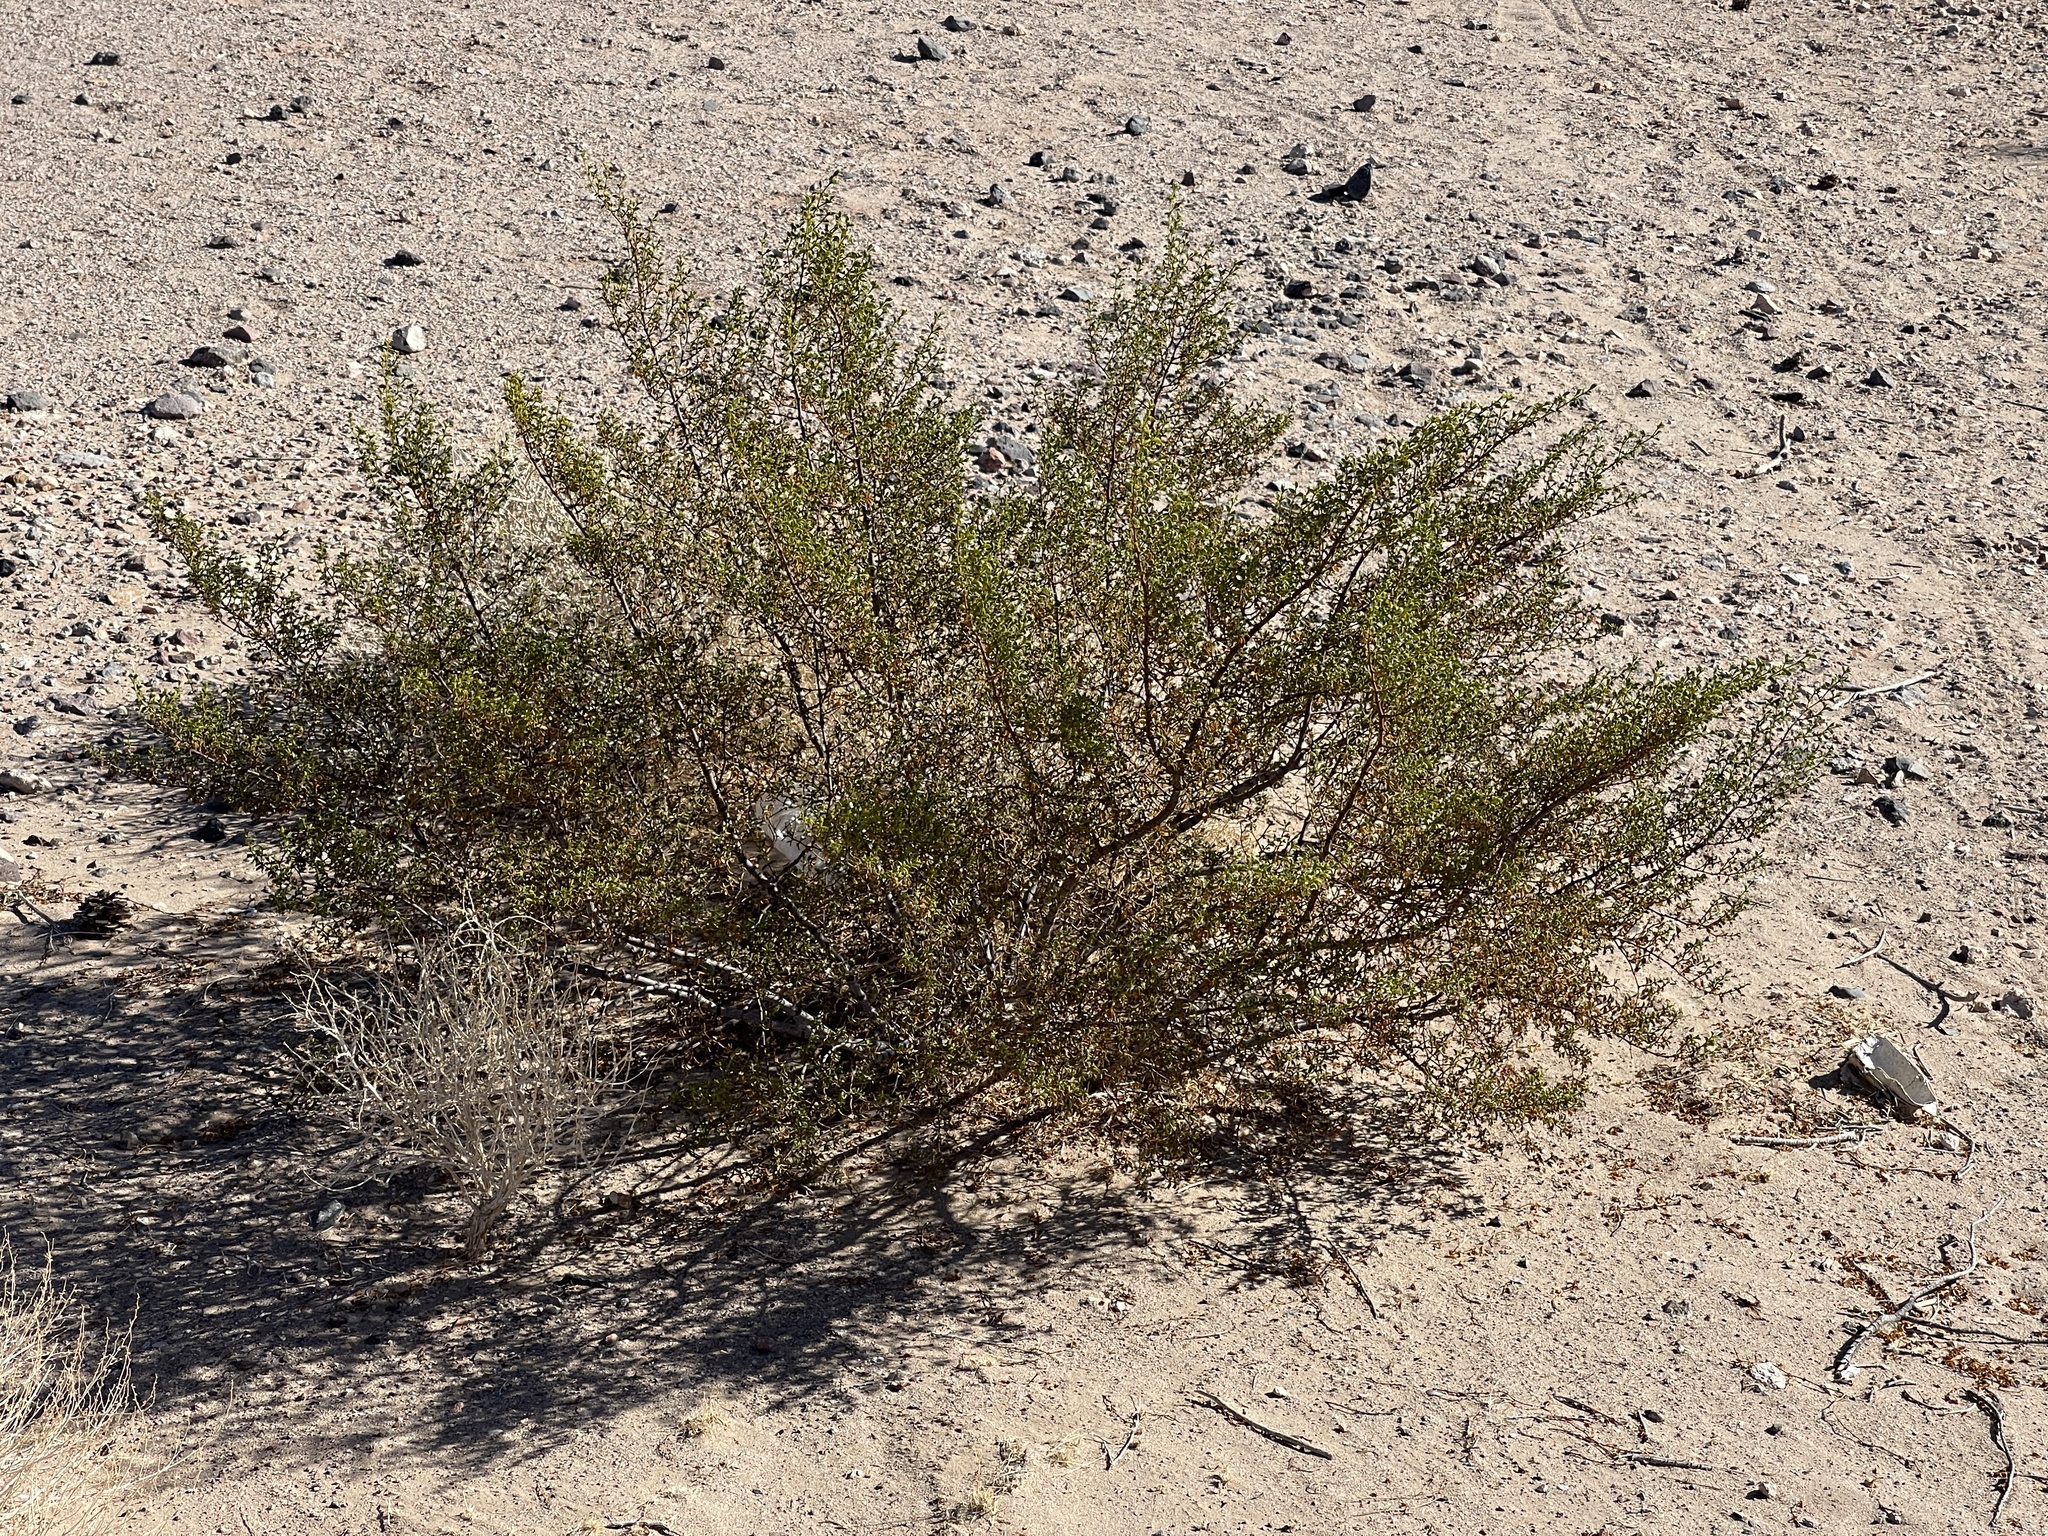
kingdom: Plantae
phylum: Tracheophyta
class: Magnoliopsida
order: Zygophyllales
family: Zygophyllaceae
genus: Larrea
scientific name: Larrea tridentata
